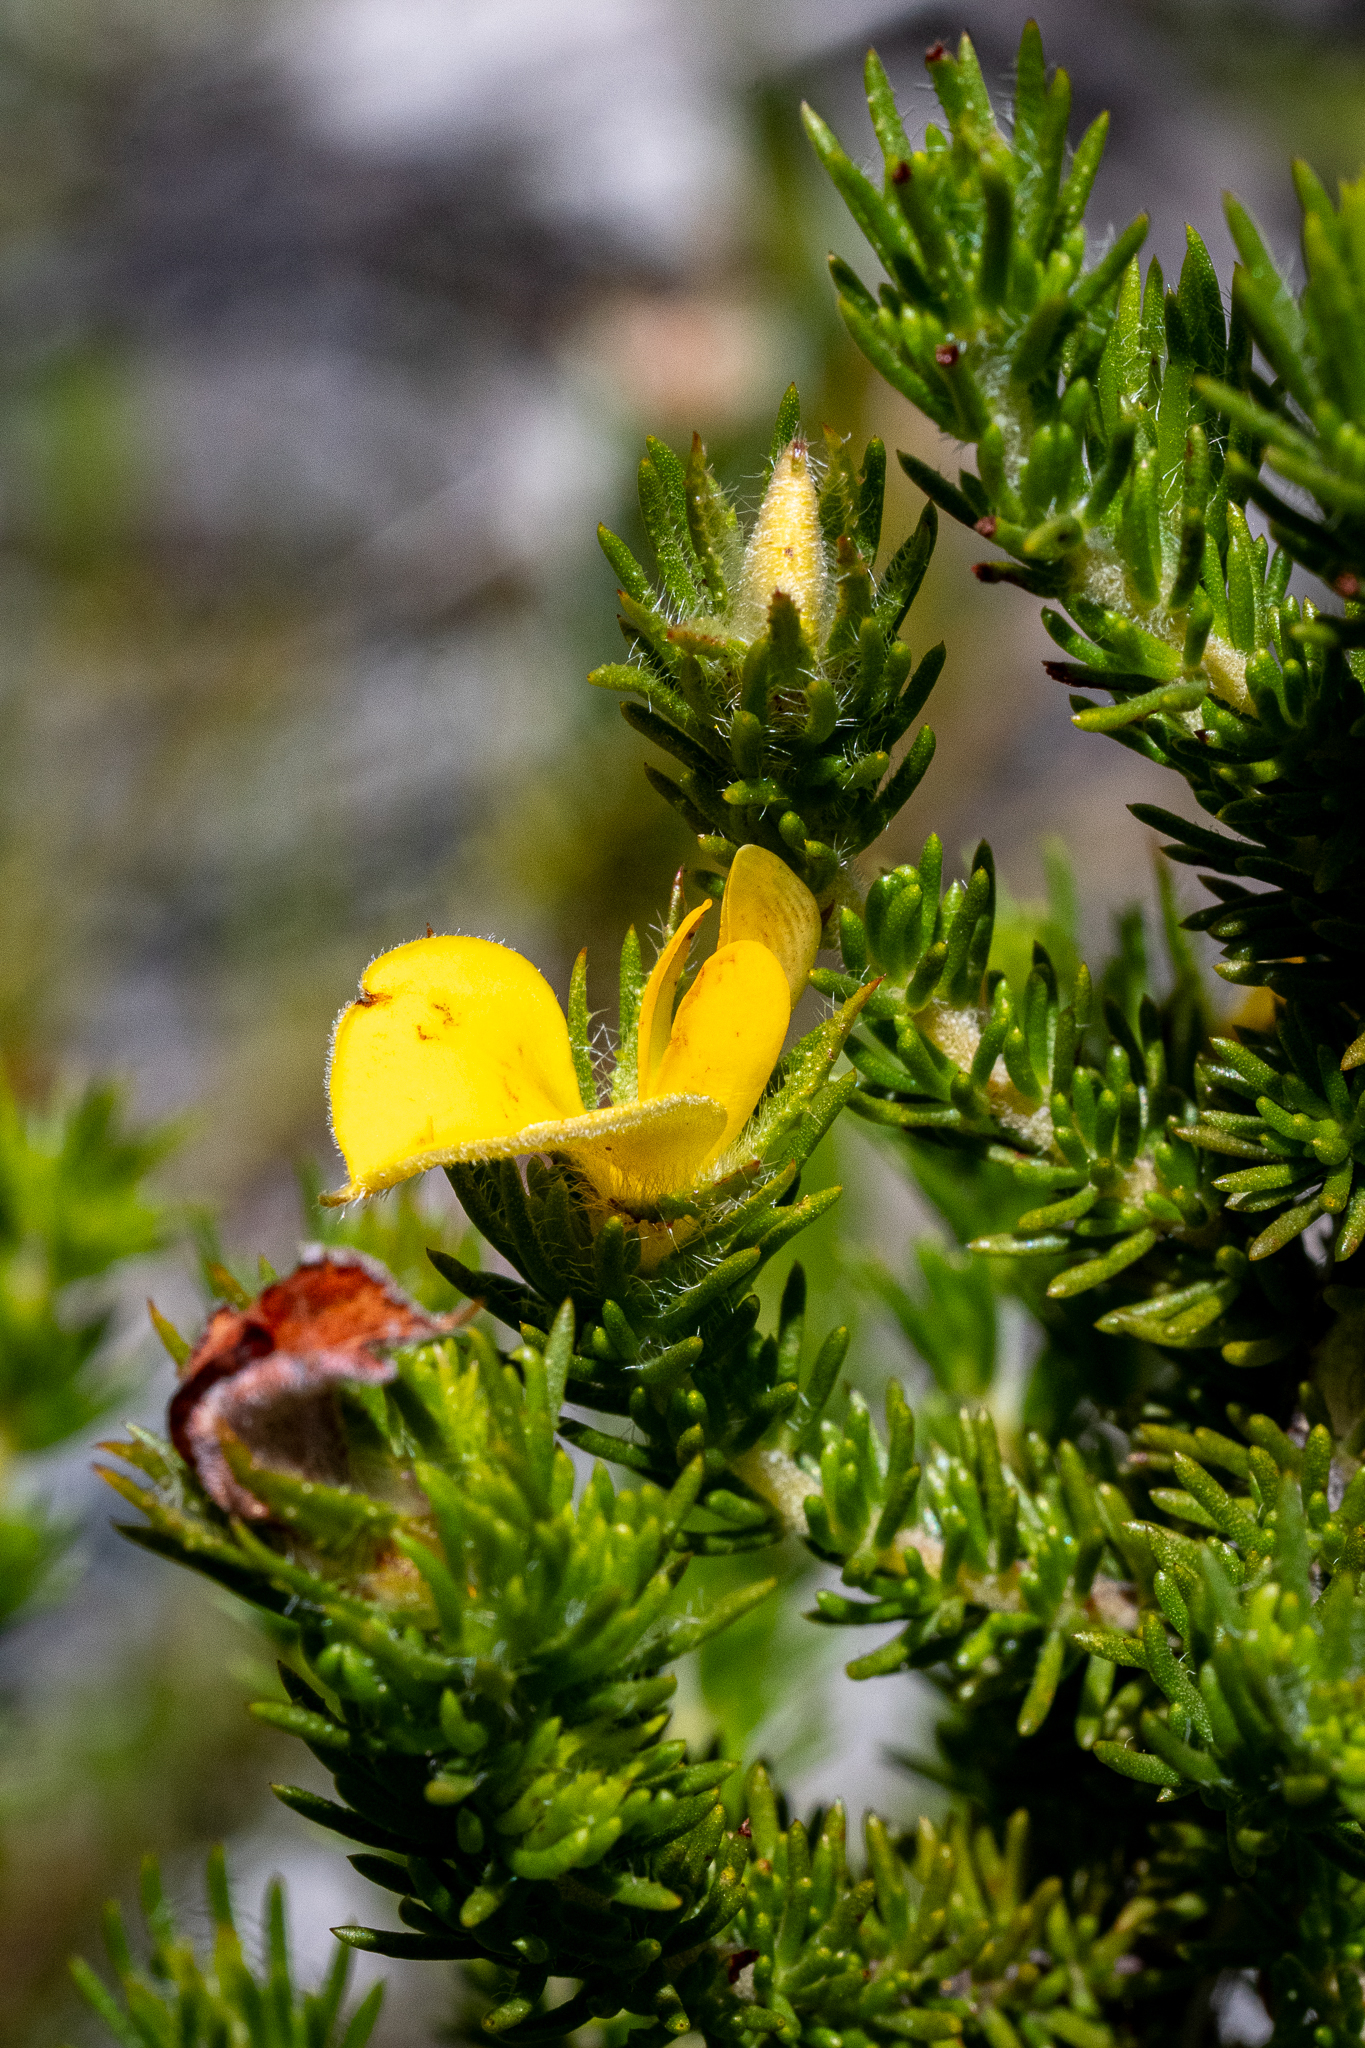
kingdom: Plantae
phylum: Tracheophyta
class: Magnoliopsida
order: Fabales
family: Fabaceae
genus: Aspalathus
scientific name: Aspalathus ciliaris
